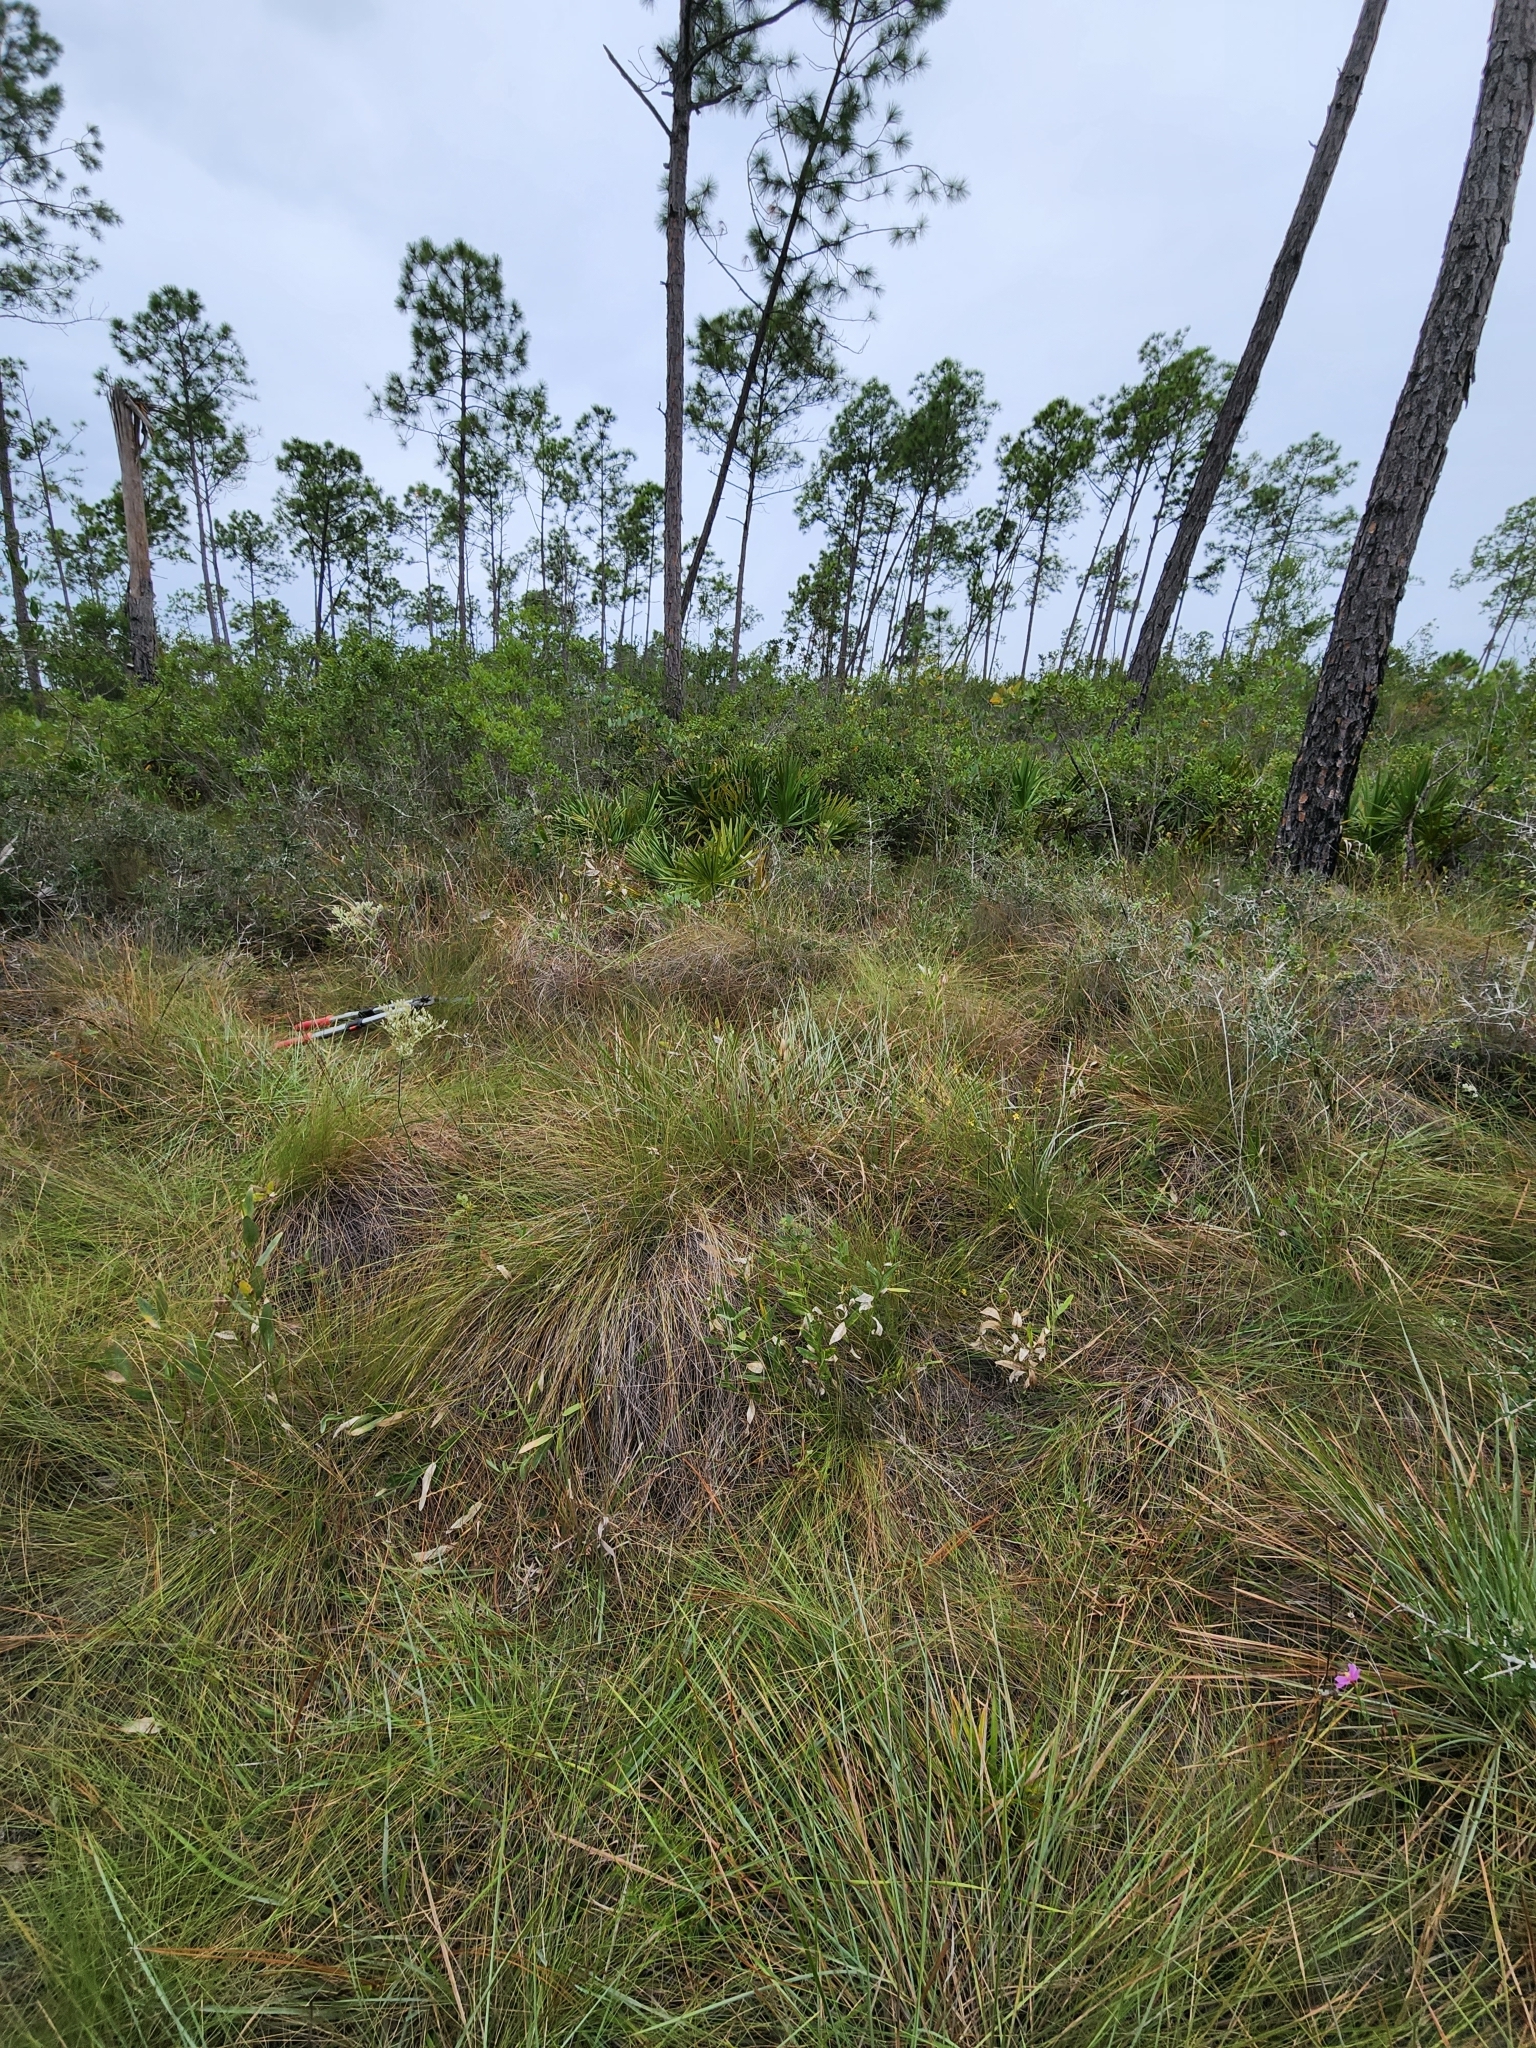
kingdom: Plantae
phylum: Tracheophyta
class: Magnoliopsida
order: Asterales
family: Asteraceae
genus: Verbesina
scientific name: Verbesina chapmanii
